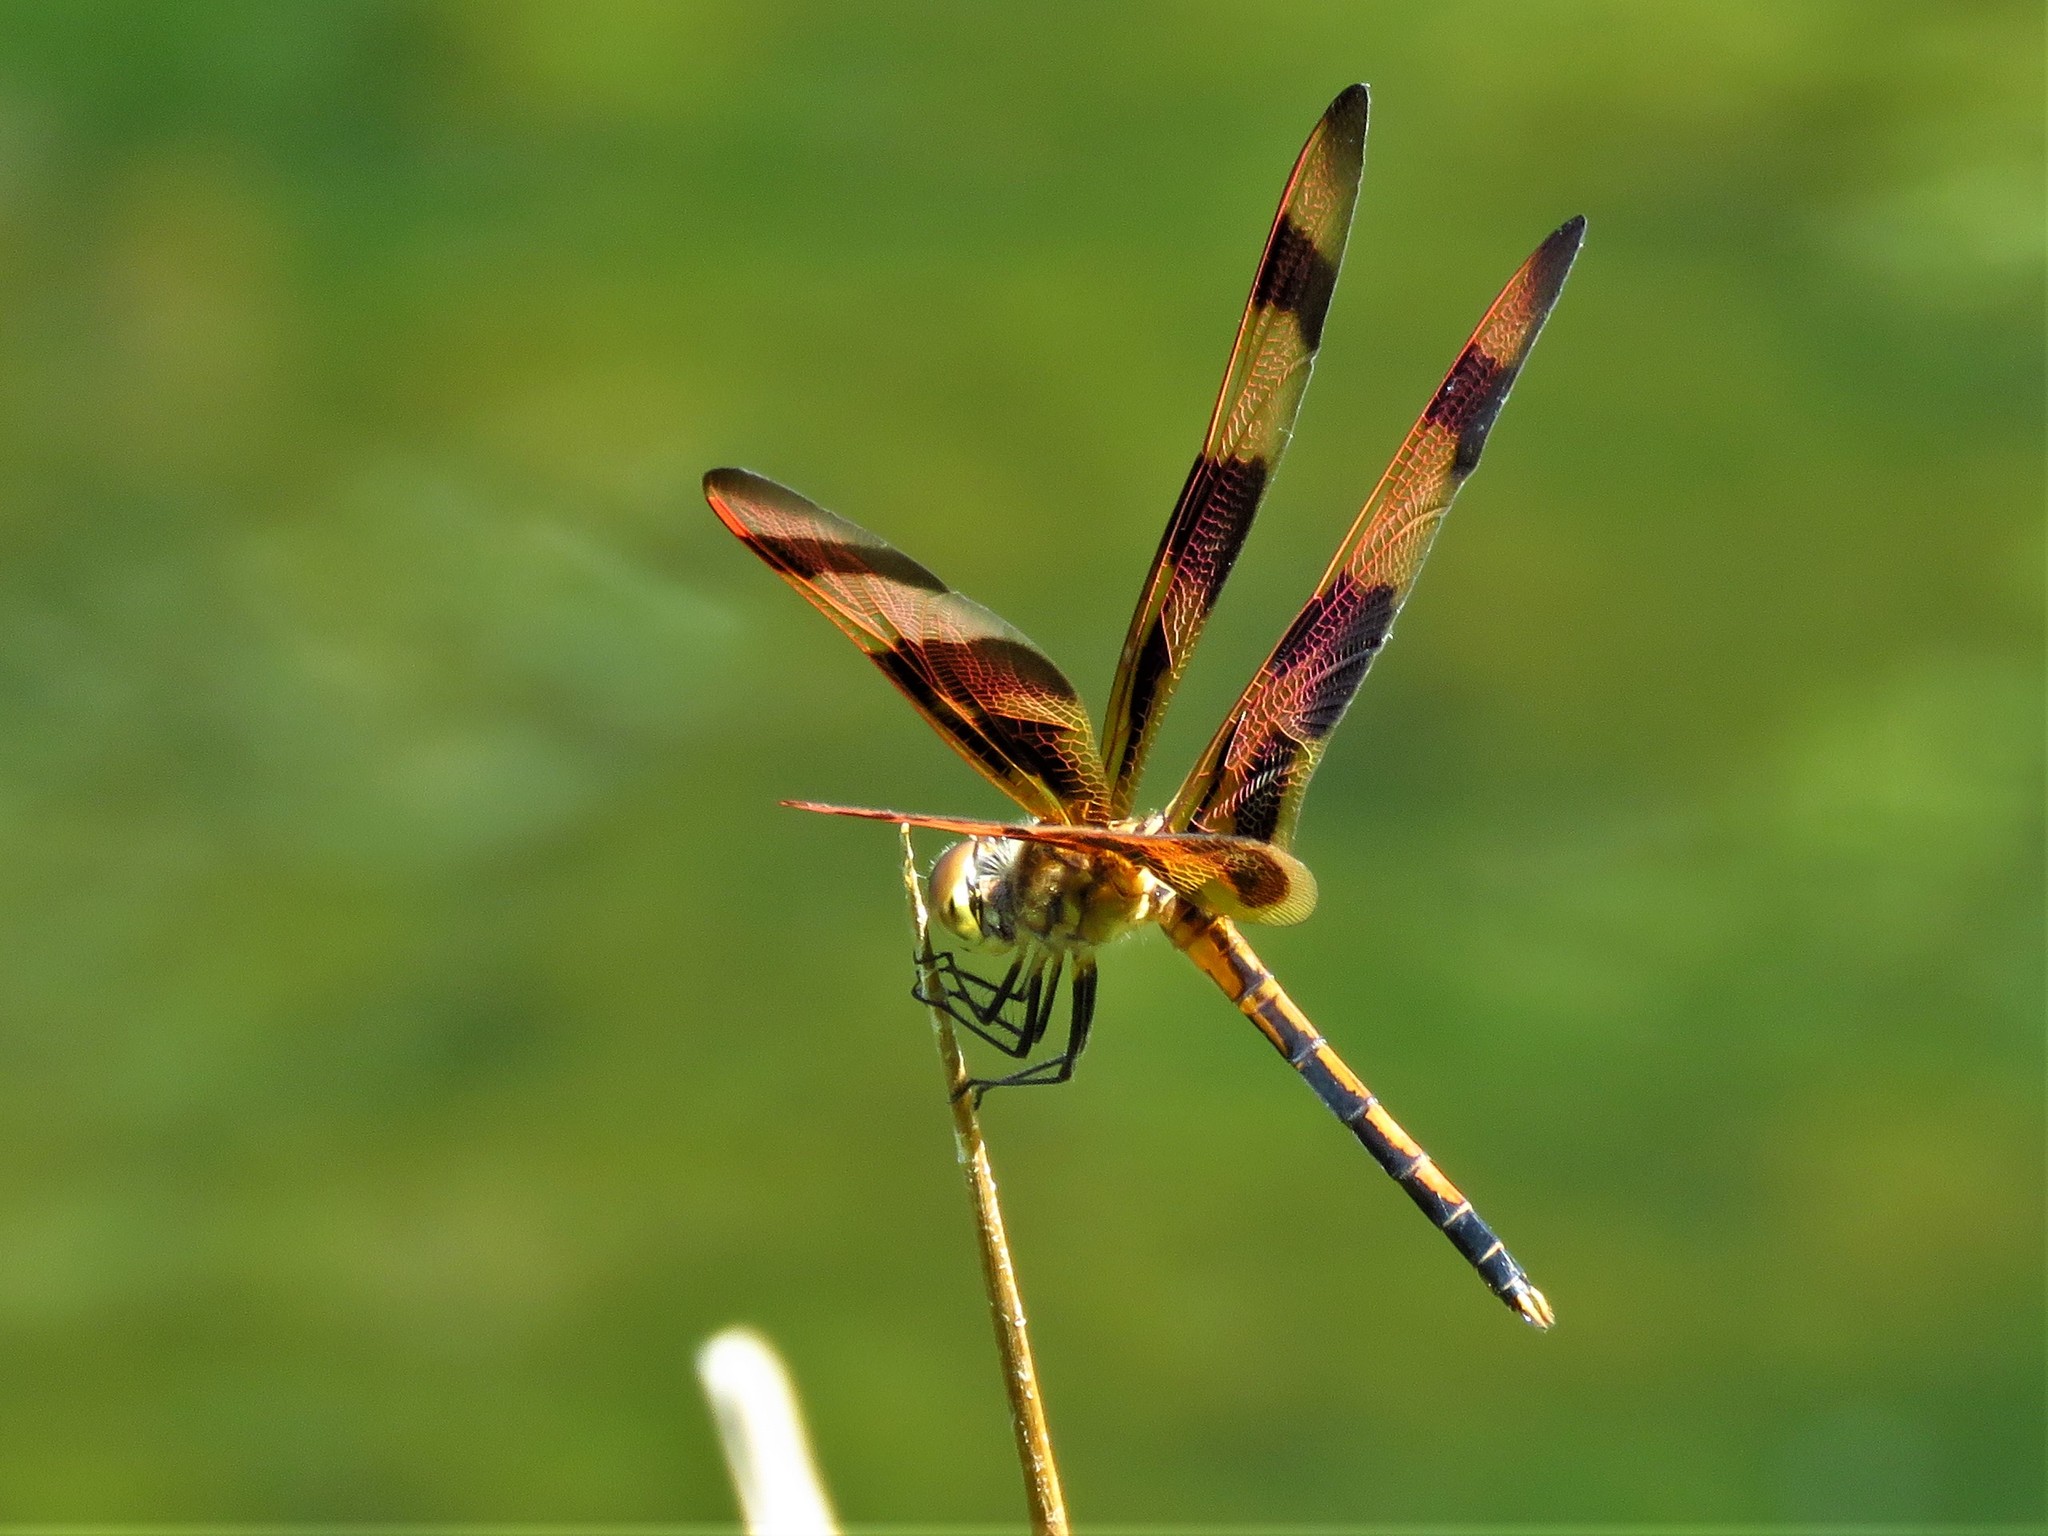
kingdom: Animalia
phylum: Arthropoda
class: Insecta
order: Odonata
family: Libellulidae
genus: Celithemis
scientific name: Celithemis eponina
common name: Halloween pennant
